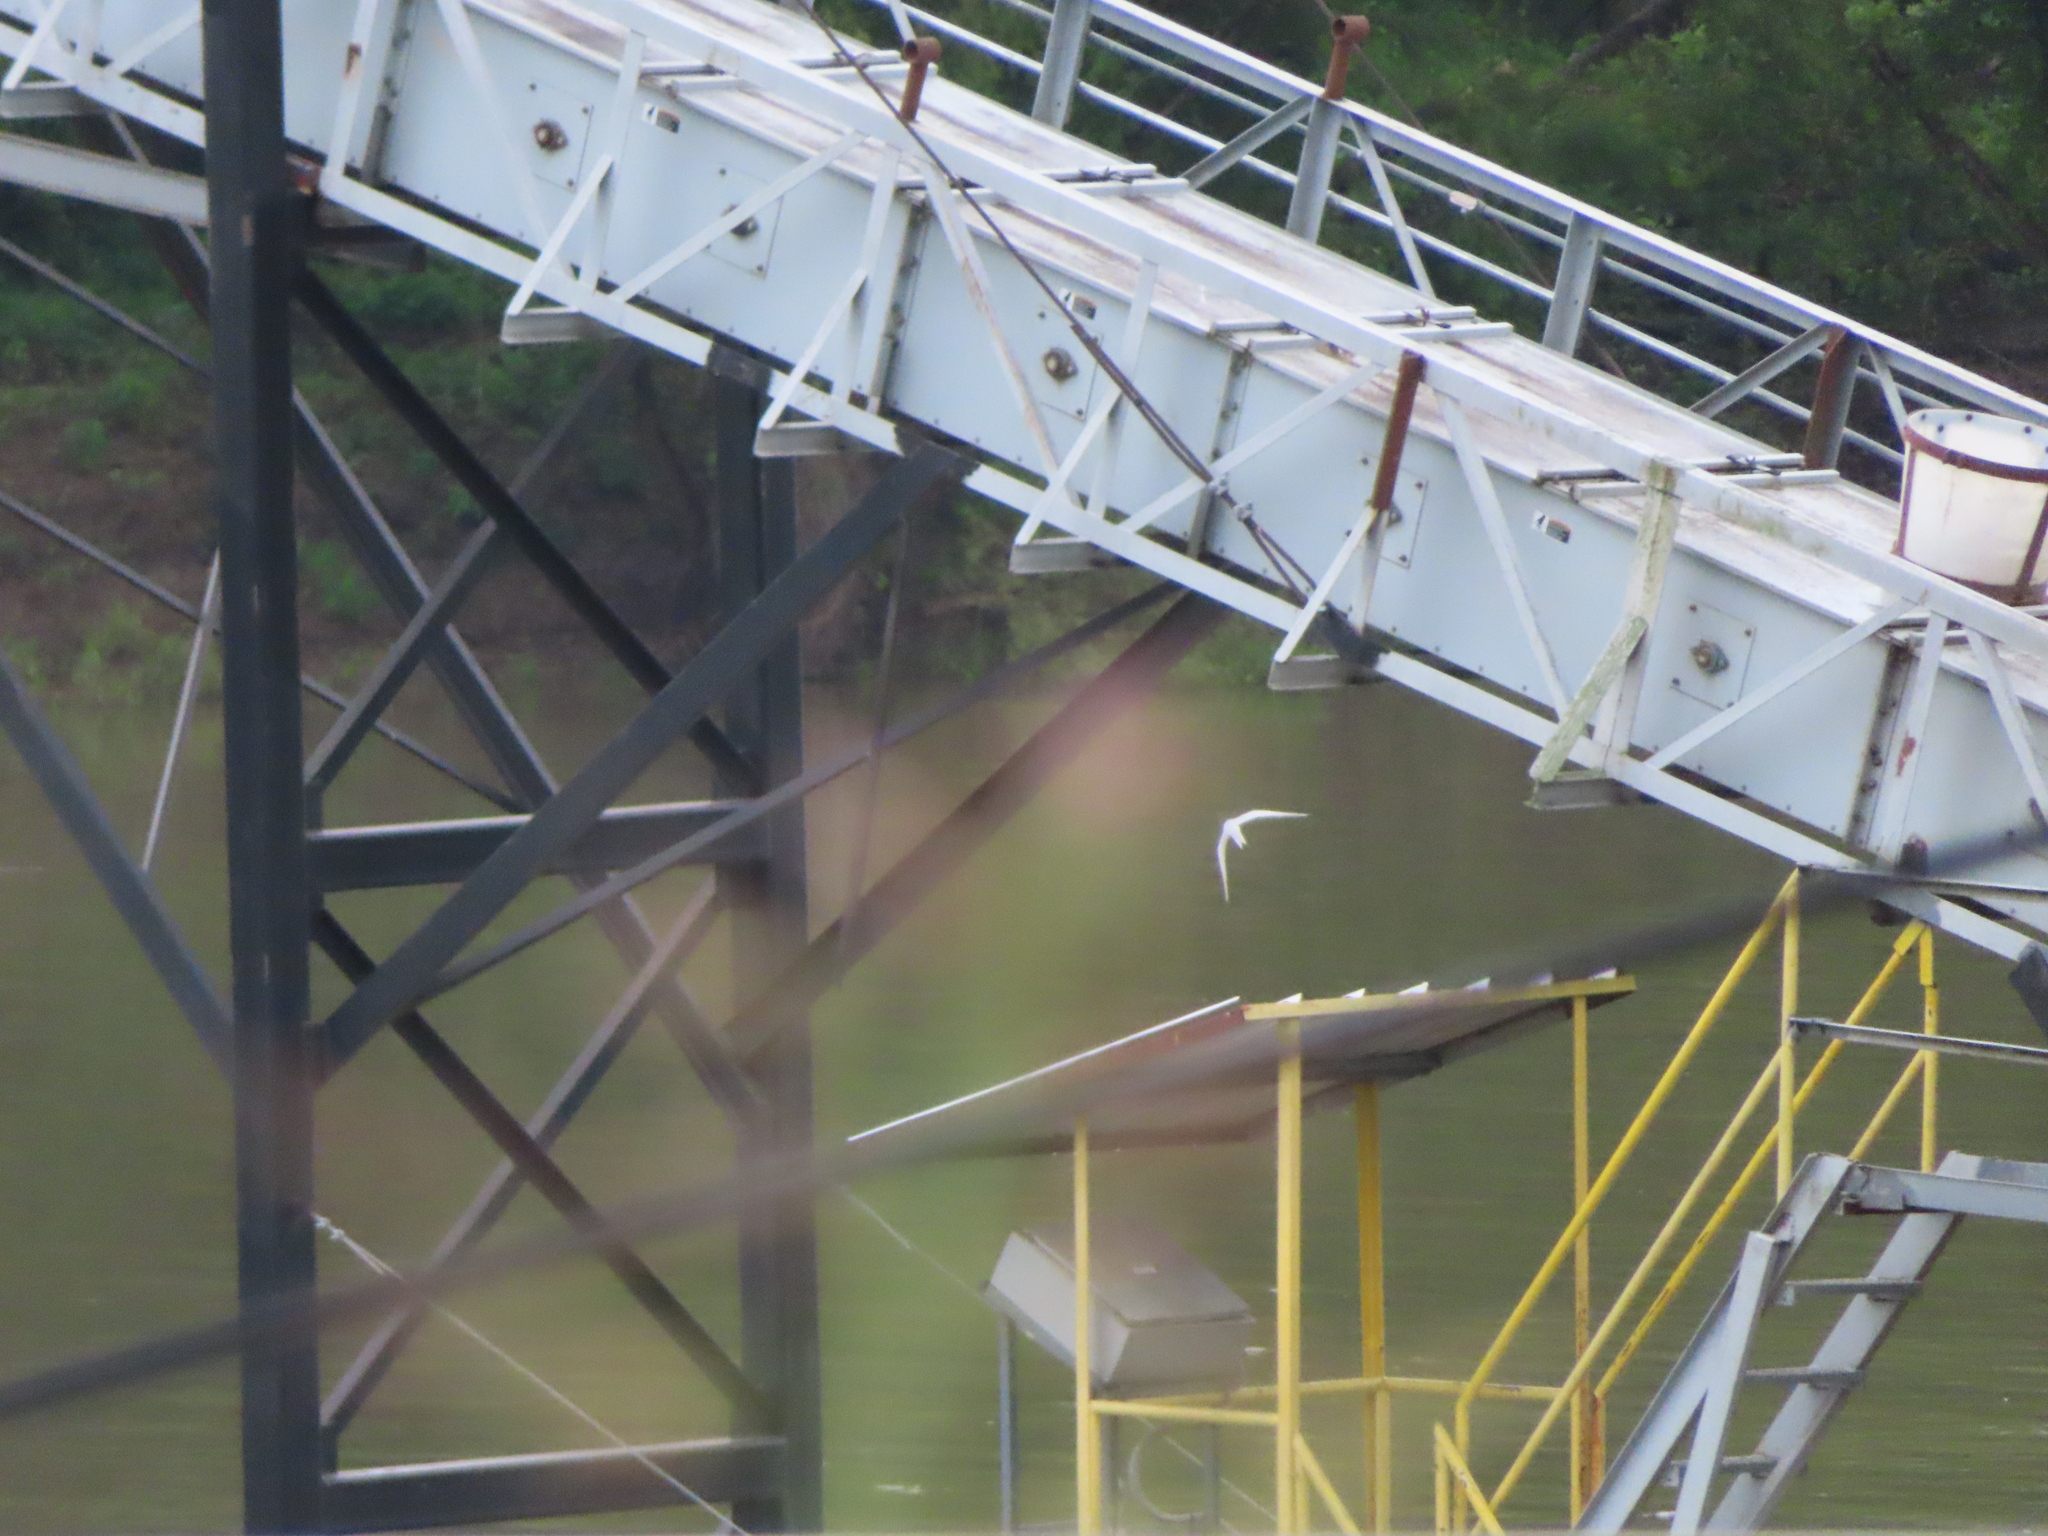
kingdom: Animalia
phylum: Chordata
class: Aves
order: Charadriiformes
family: Laridae
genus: Sternula
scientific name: Sternula antillarum
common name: Least tern
